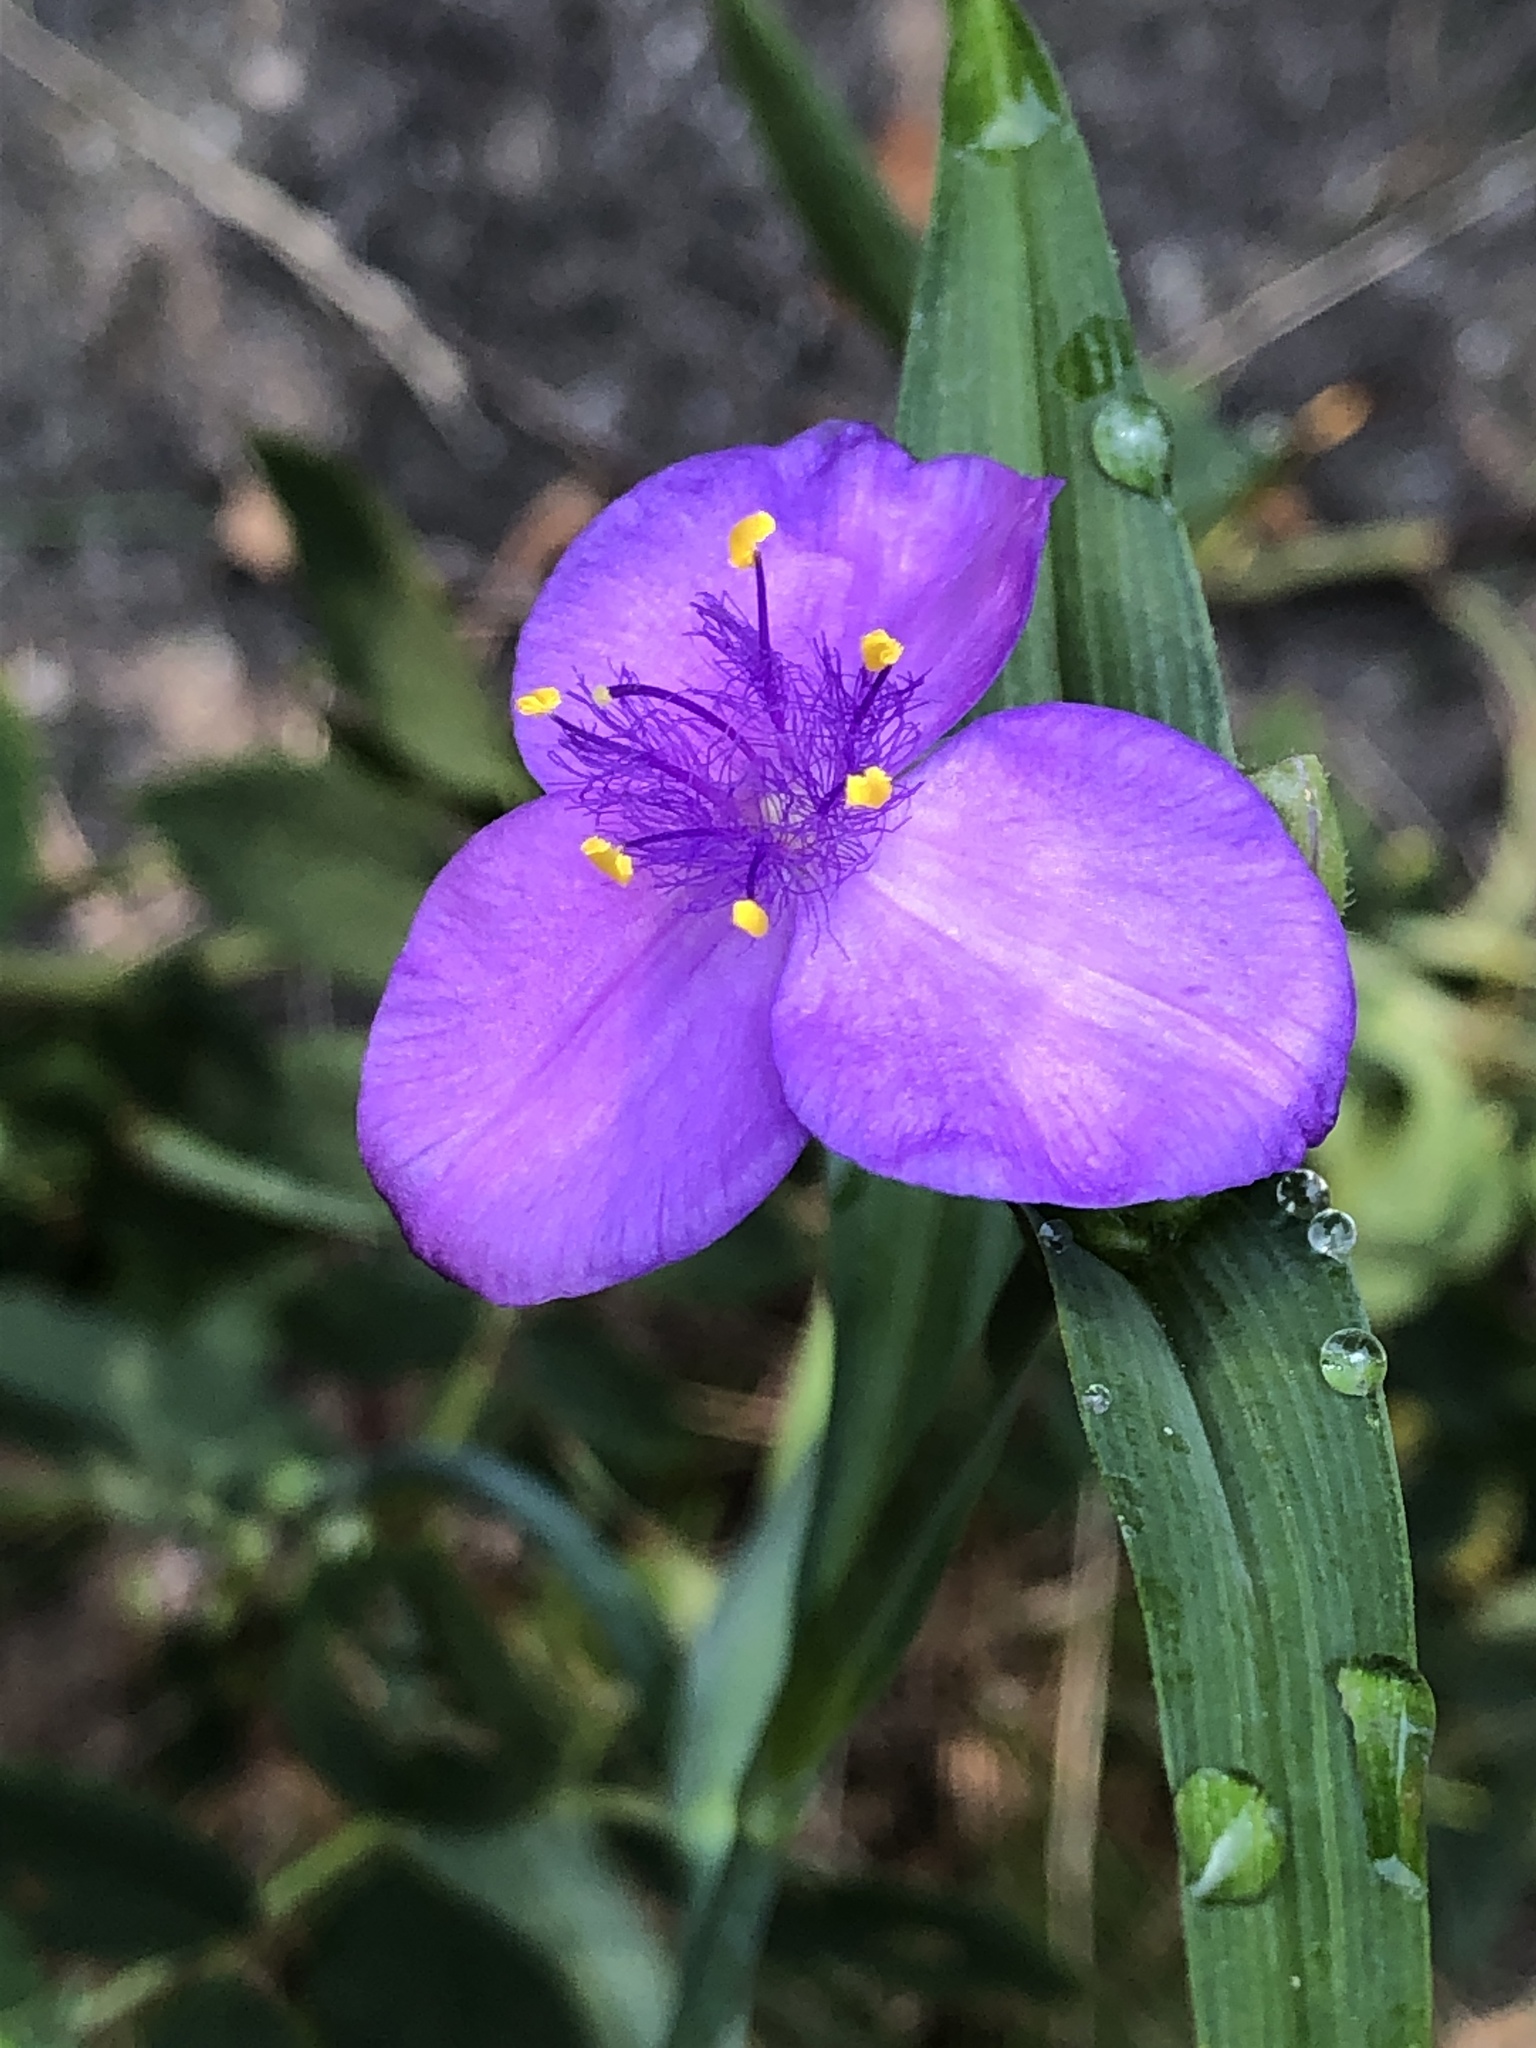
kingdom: Plantae
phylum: Tracheophyta
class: Liliopsida
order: Commelinales
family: Commelinaceae
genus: Tradescantia
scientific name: Tradescantia virginiana
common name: Spiderwort
